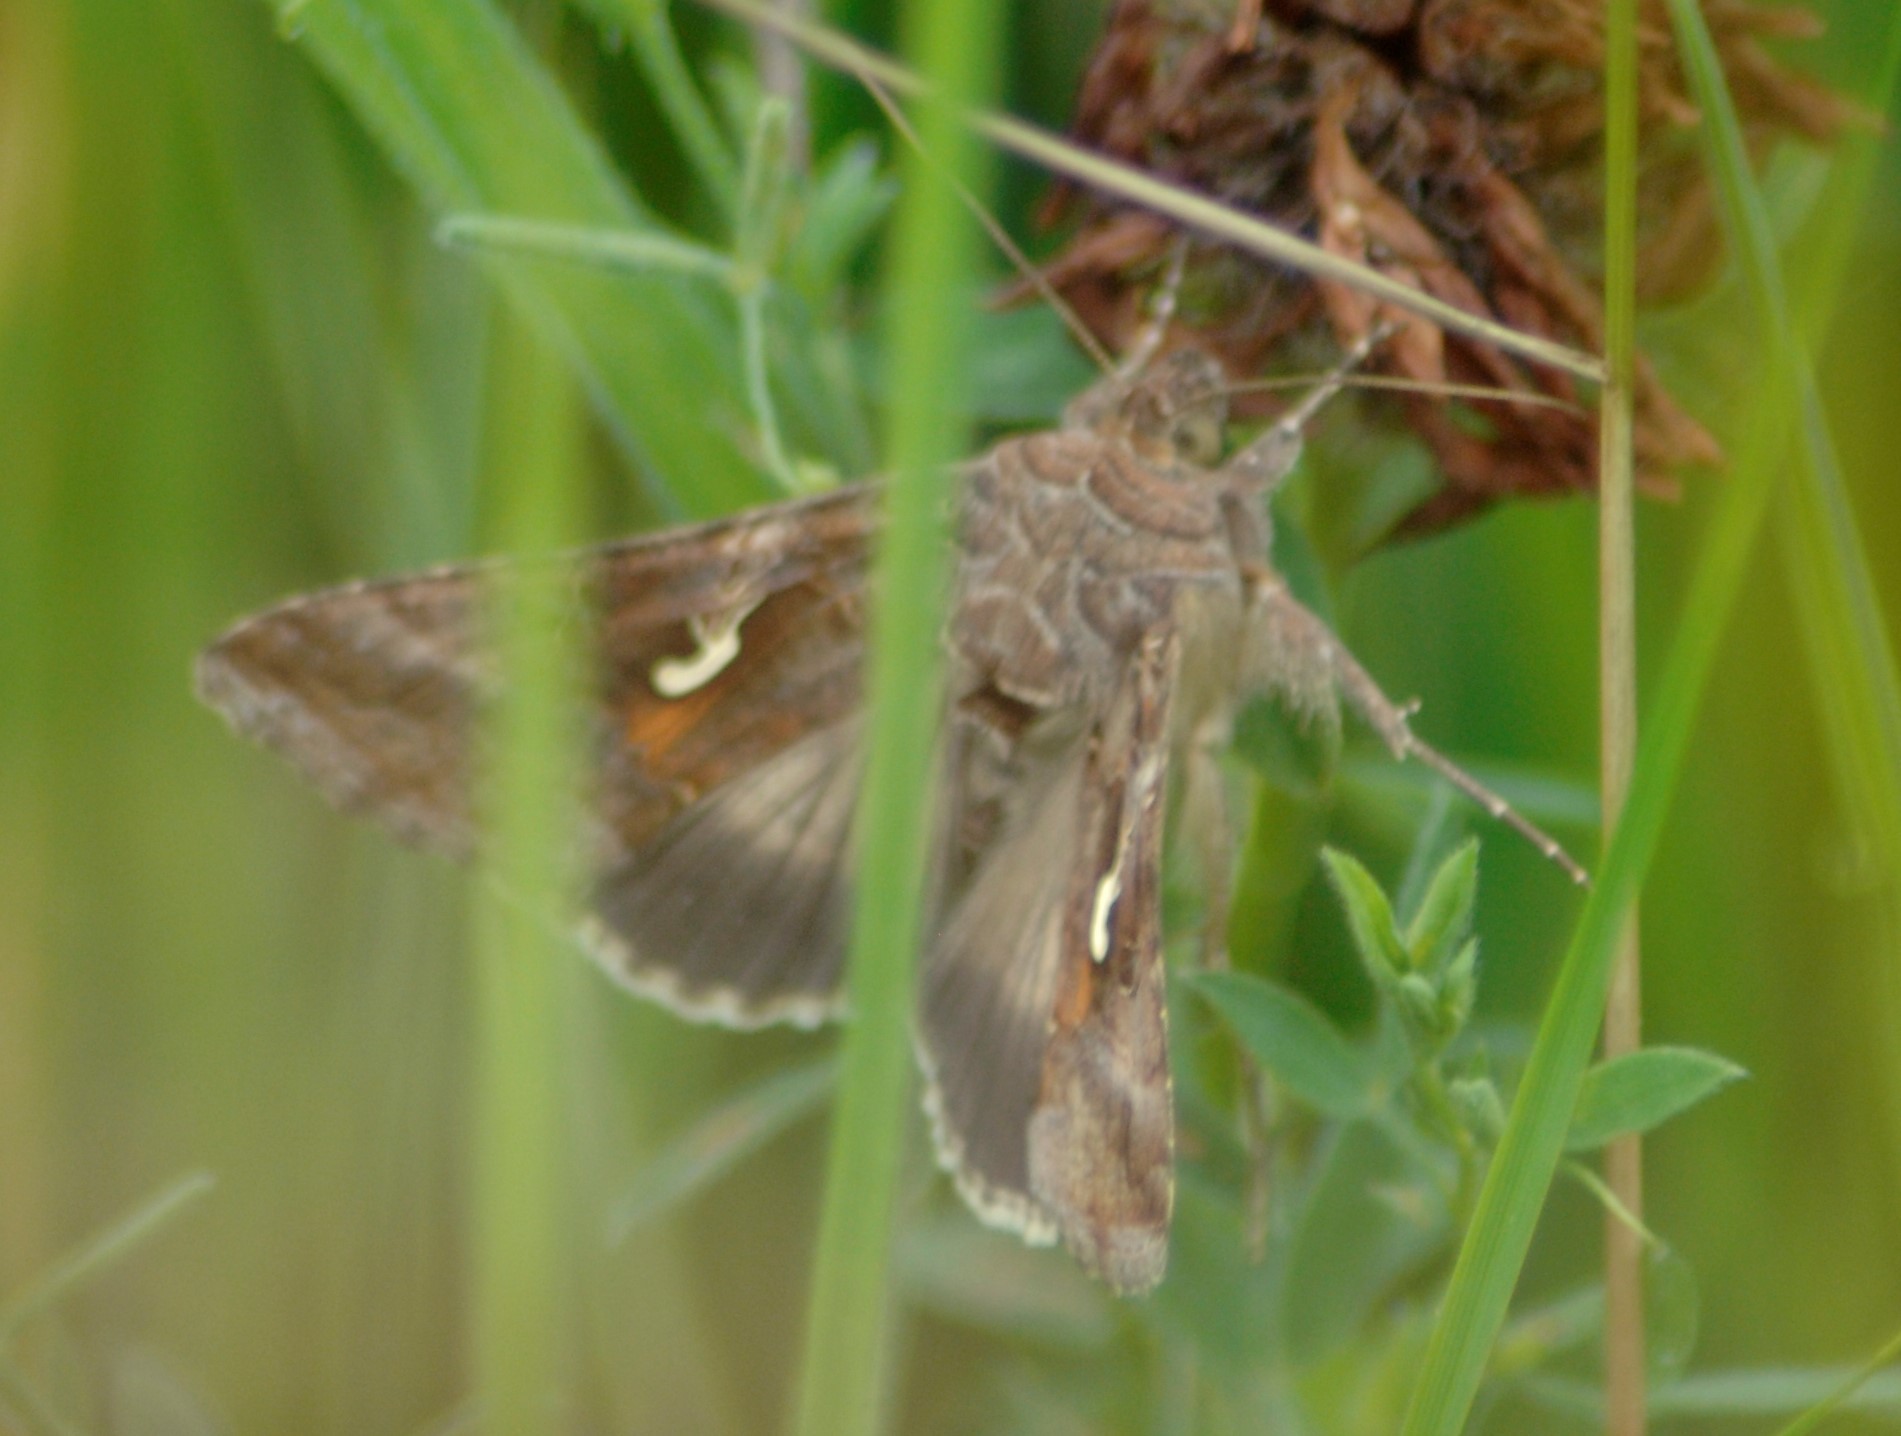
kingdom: Animalia
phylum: Arthropoda
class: Insecta
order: Lepidoptera
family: Noctuidae
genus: Autographa
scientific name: Autographa gamma
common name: Silver y
